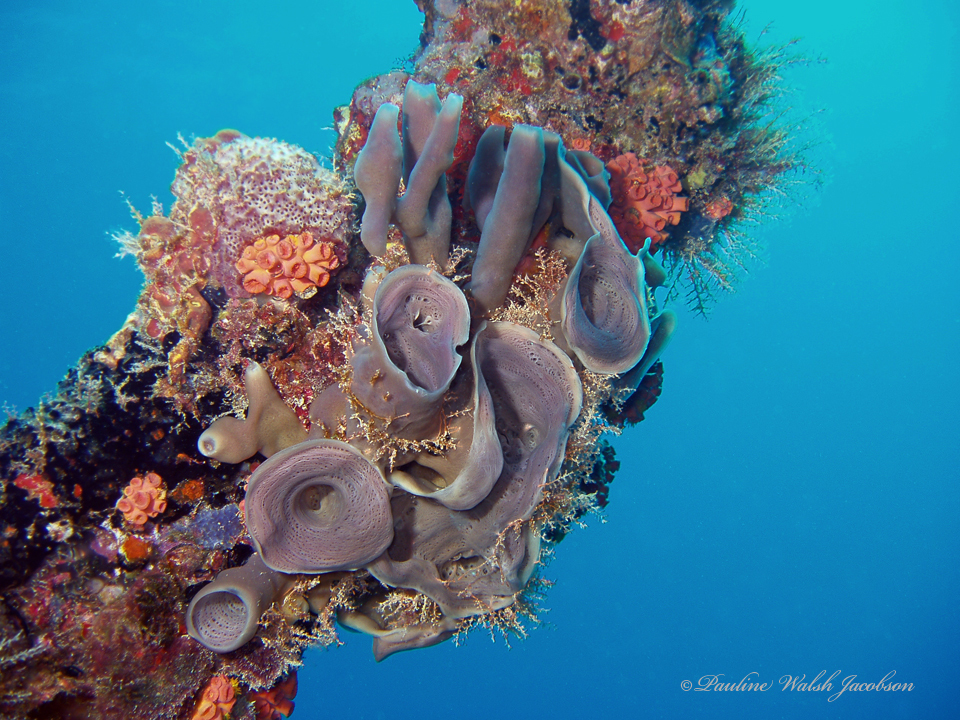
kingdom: Animalia
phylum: Porifera
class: Demospongiae
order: Haplosclerida
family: Callyspongiidae
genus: Callyspongia
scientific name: Callyspongia fallax
